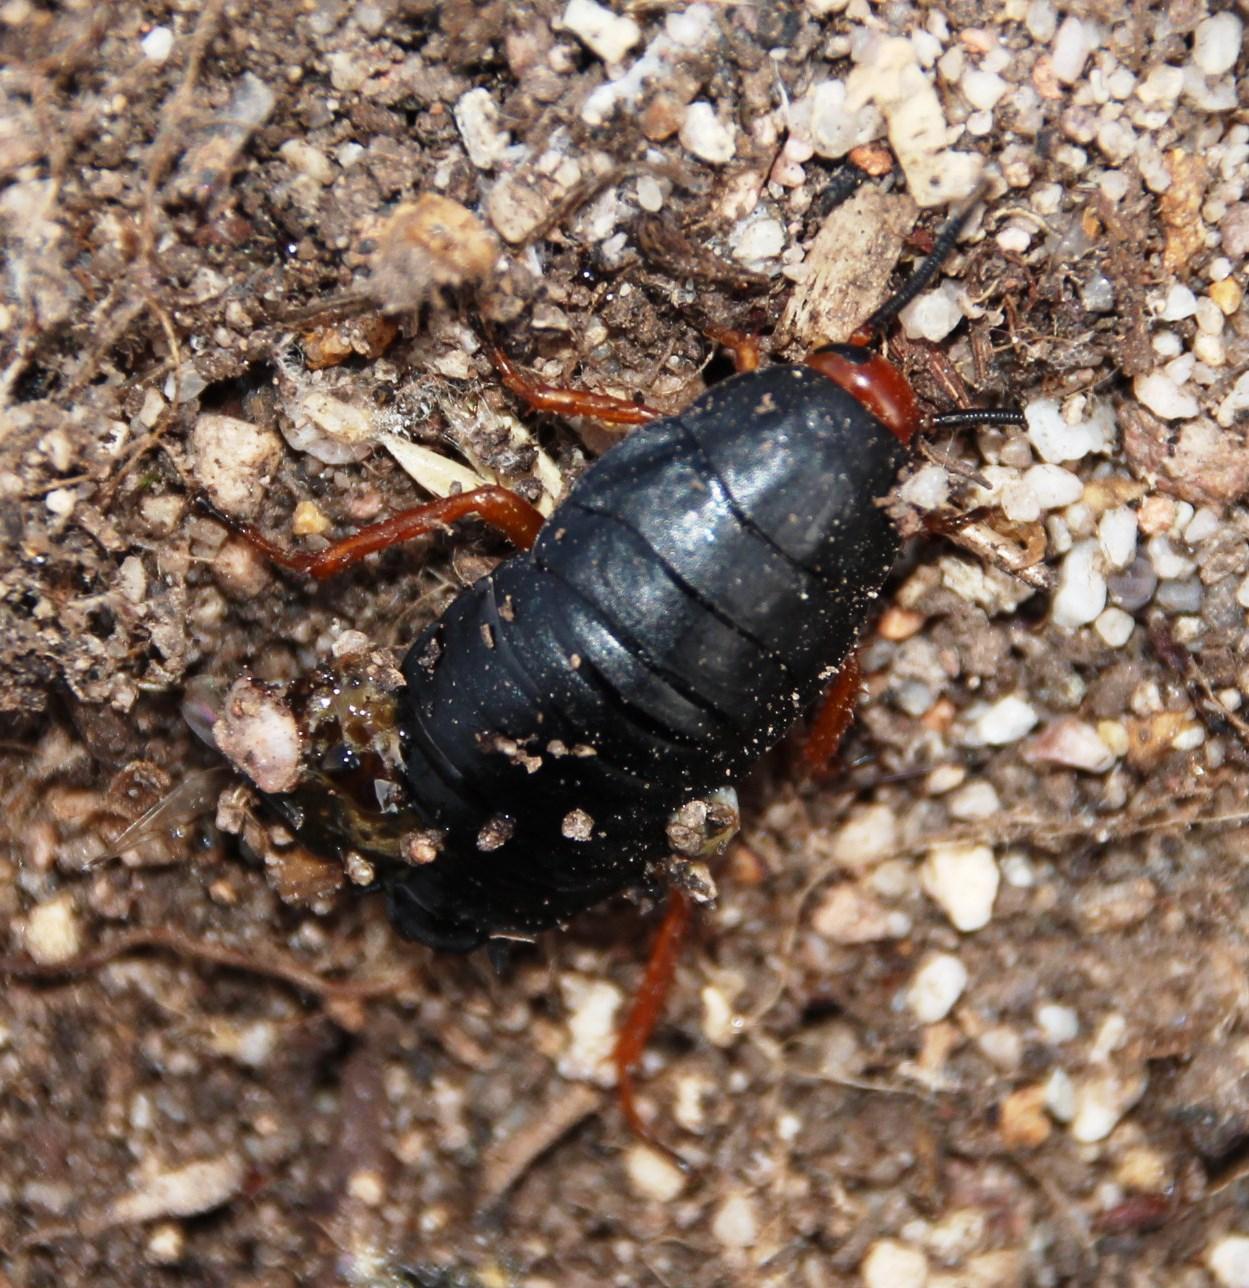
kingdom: Animalia
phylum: Arthropoda
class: Insecta
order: Blattodea
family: Blattidae
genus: Deropeltis
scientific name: Deropeltis erythrocephala
